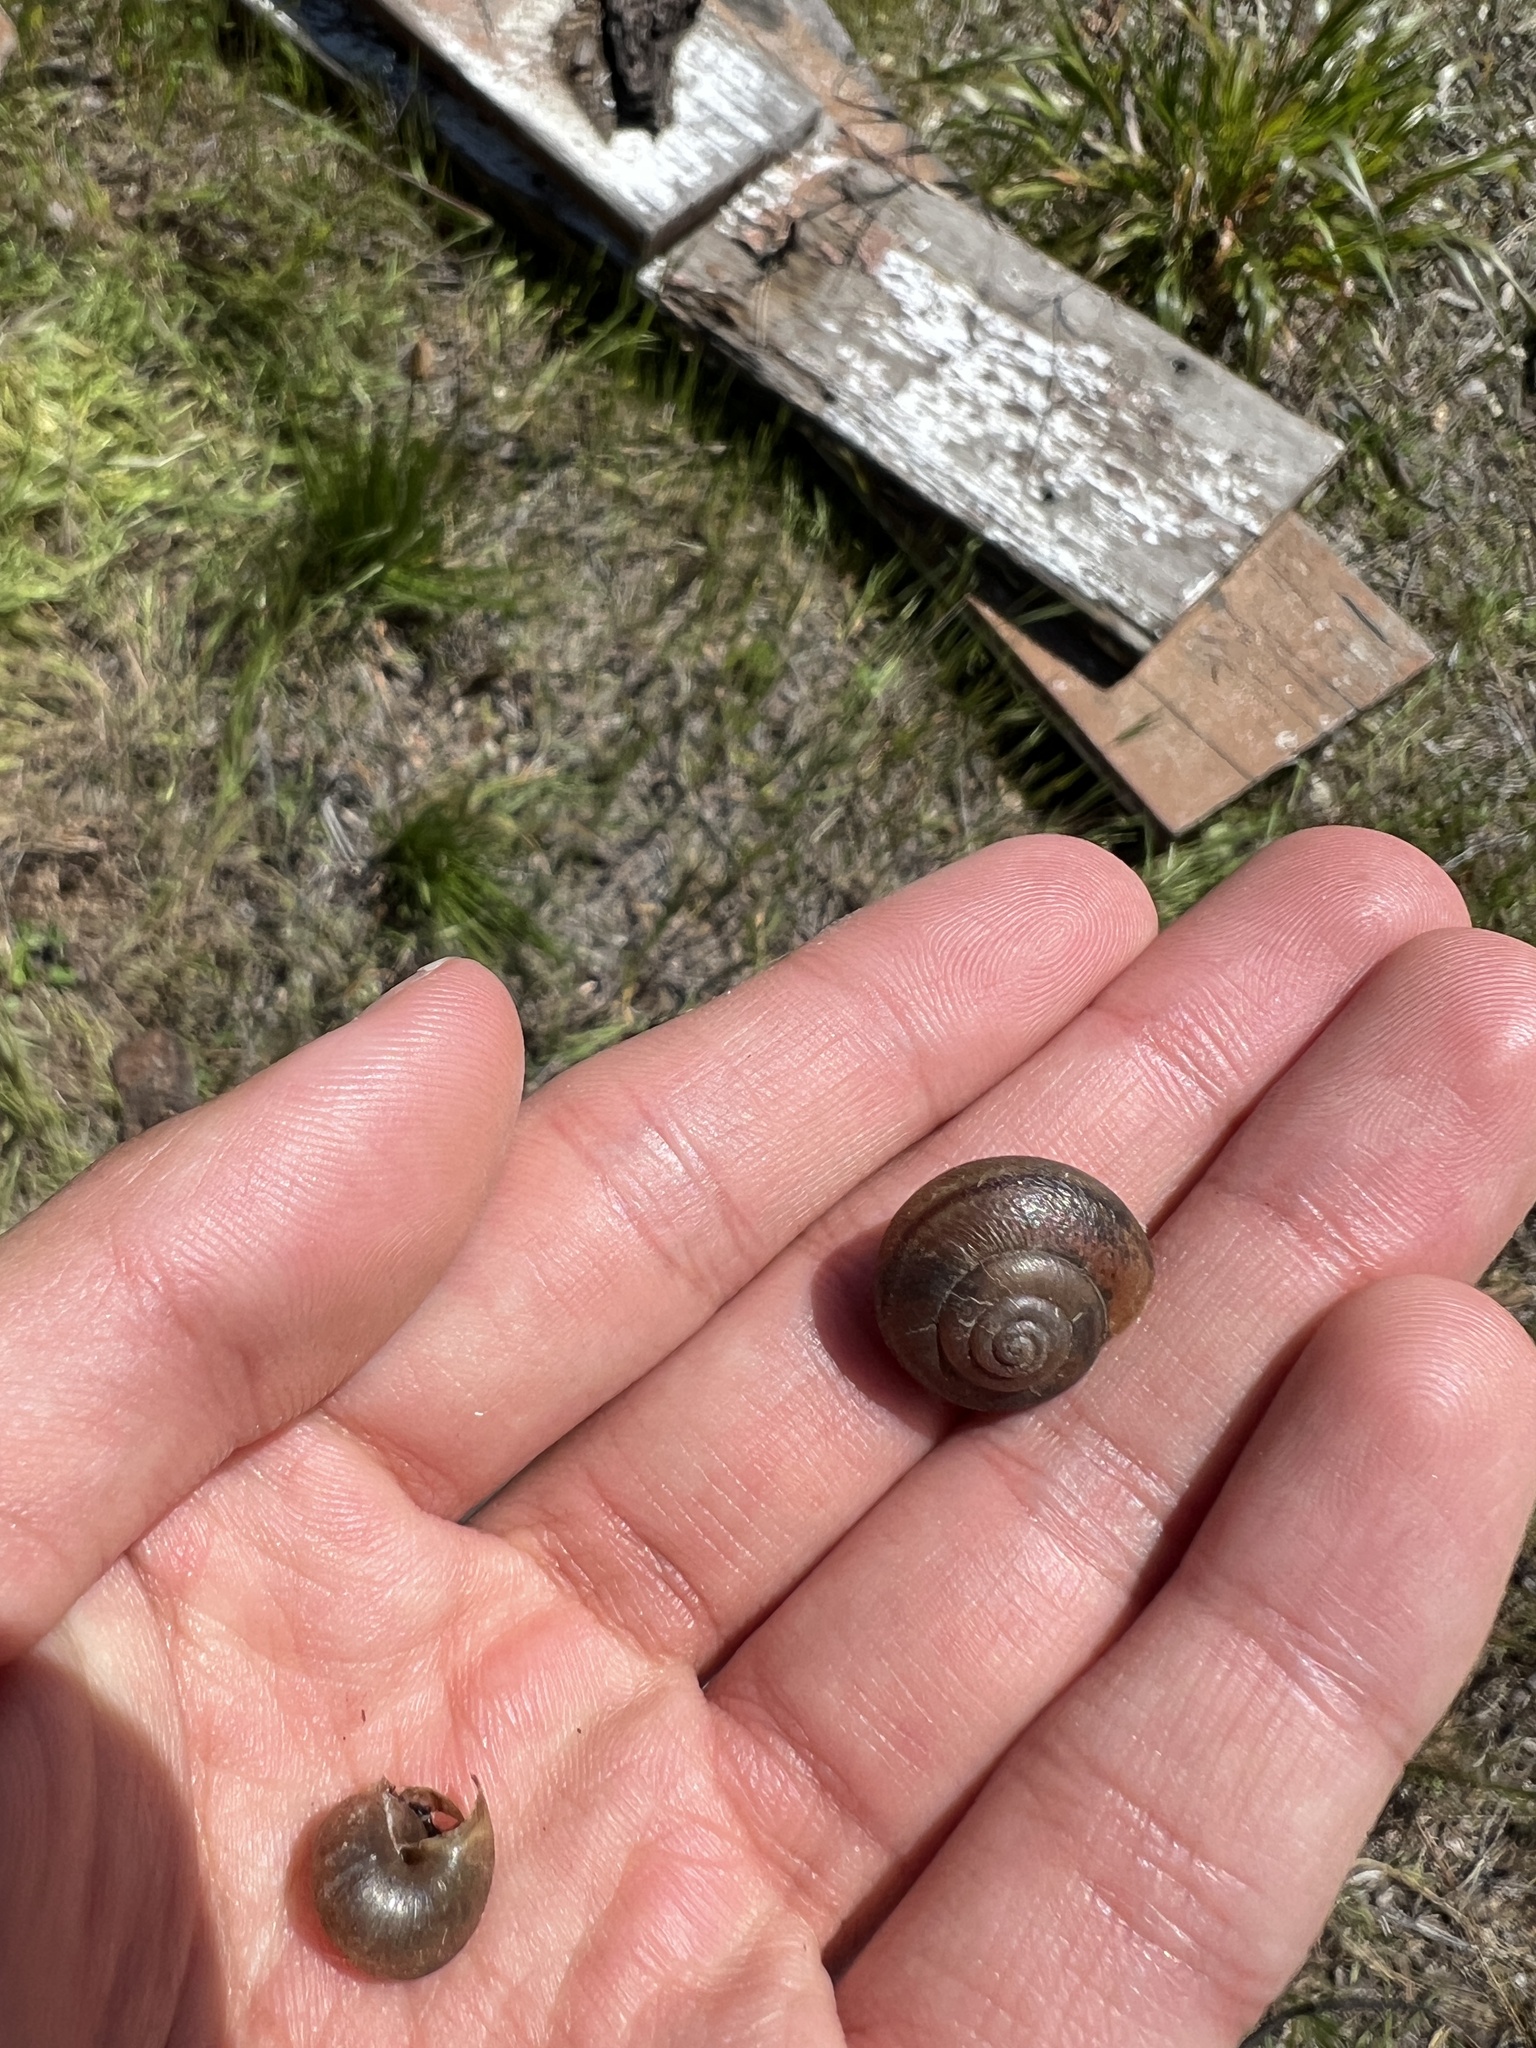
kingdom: Animalia
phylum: Mollusca
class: Gastropoda
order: Stylommatophora
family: Xanthonychidae
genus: Helminthoglypta
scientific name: Helminthoglypta tudiculata
